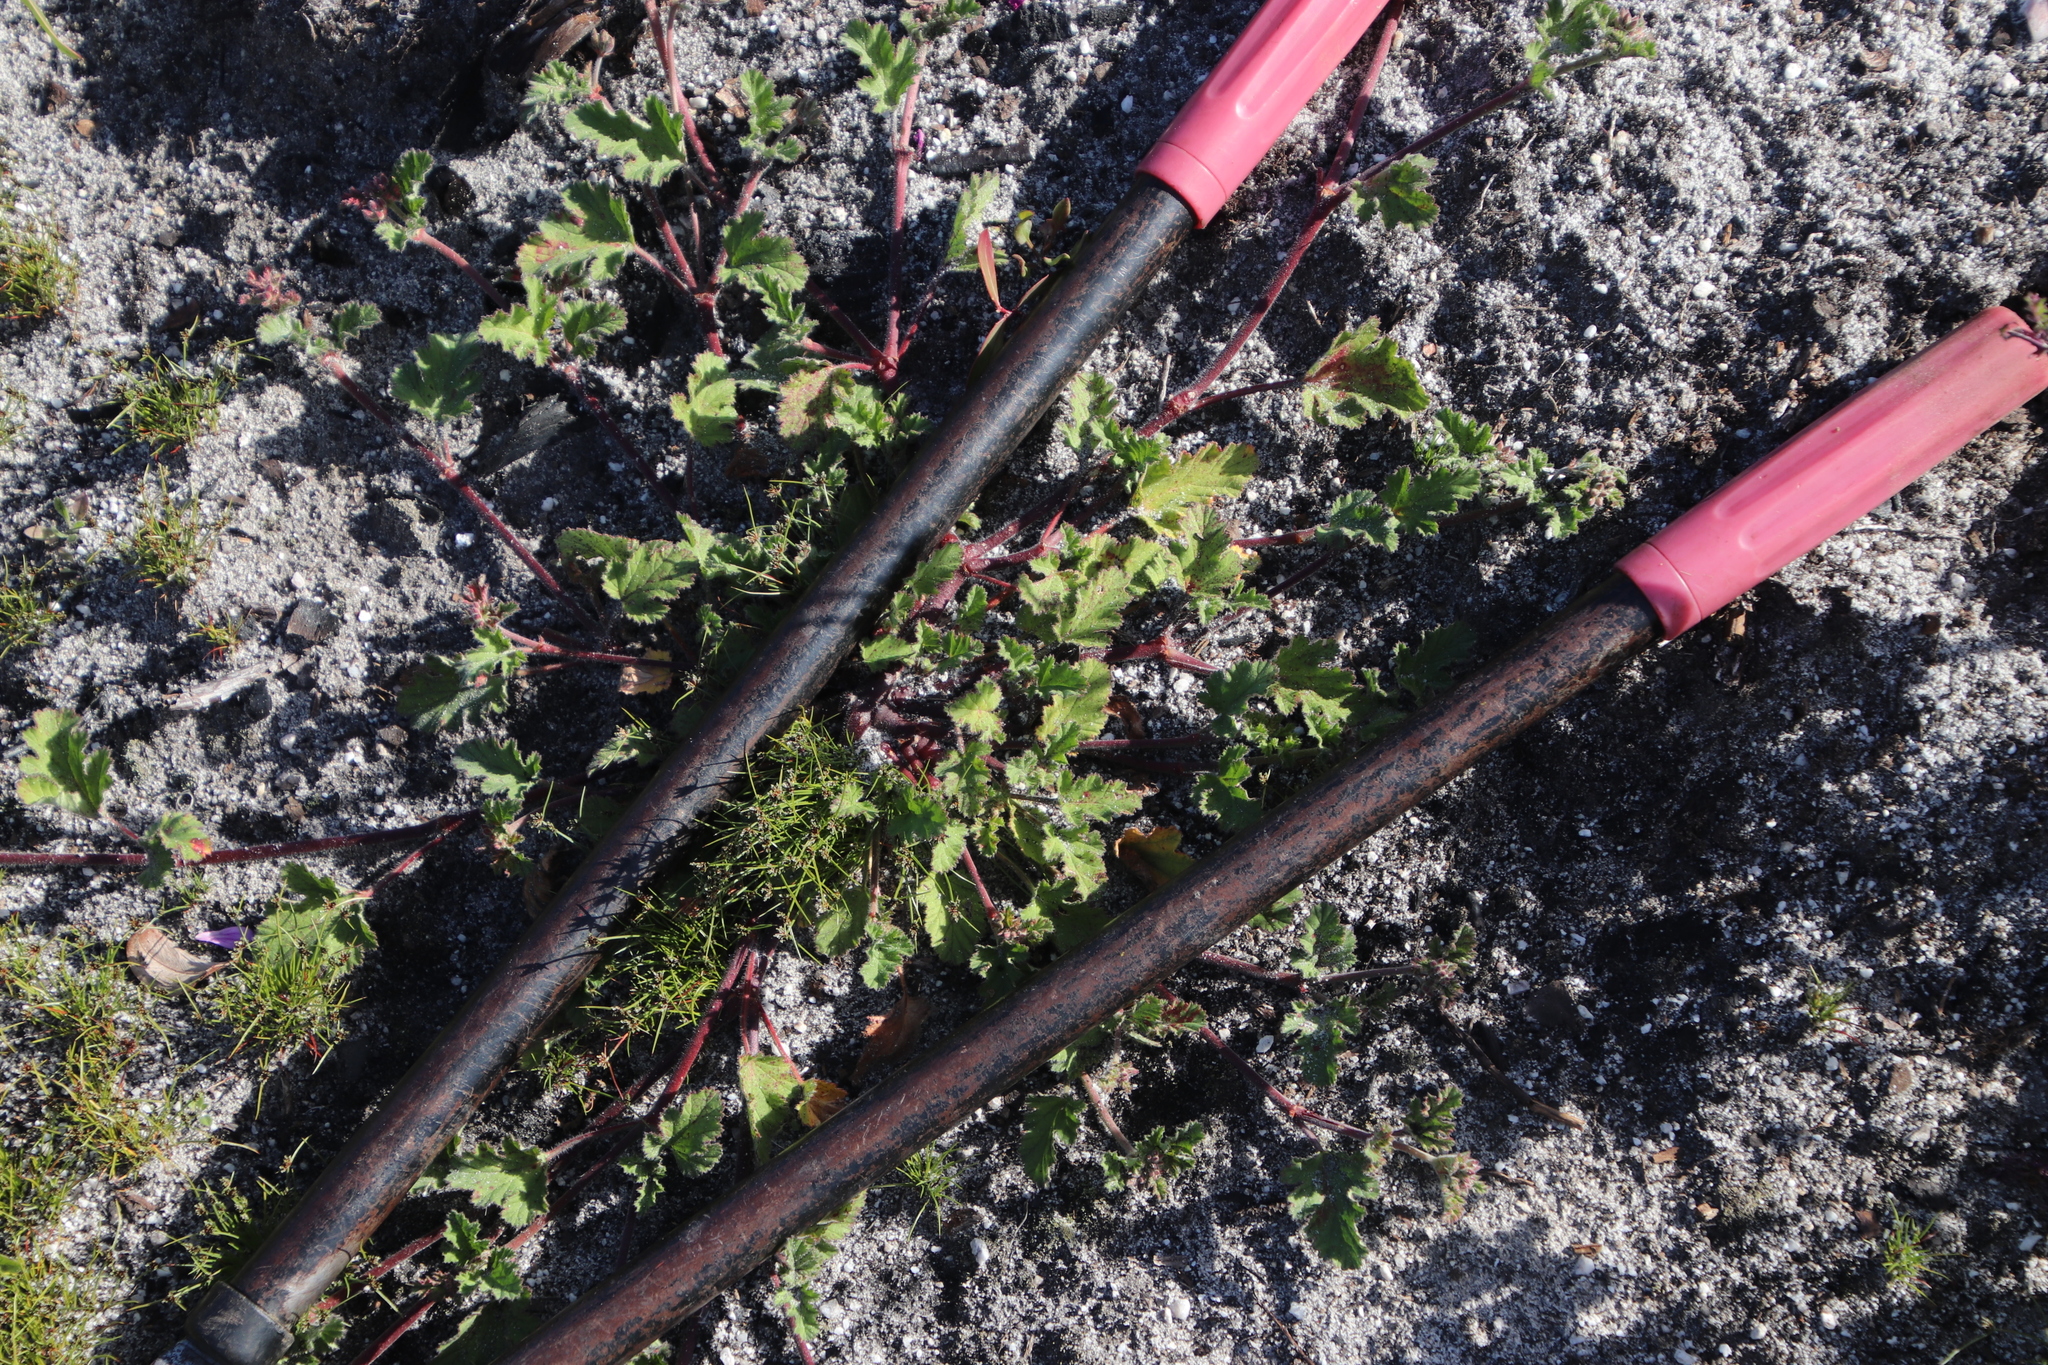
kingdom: Plantae
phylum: Tracheophyta
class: Magnoliopsida
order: Geraniales
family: Geraniaceae
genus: Pelargonium
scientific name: Pelargonium althaeoides
